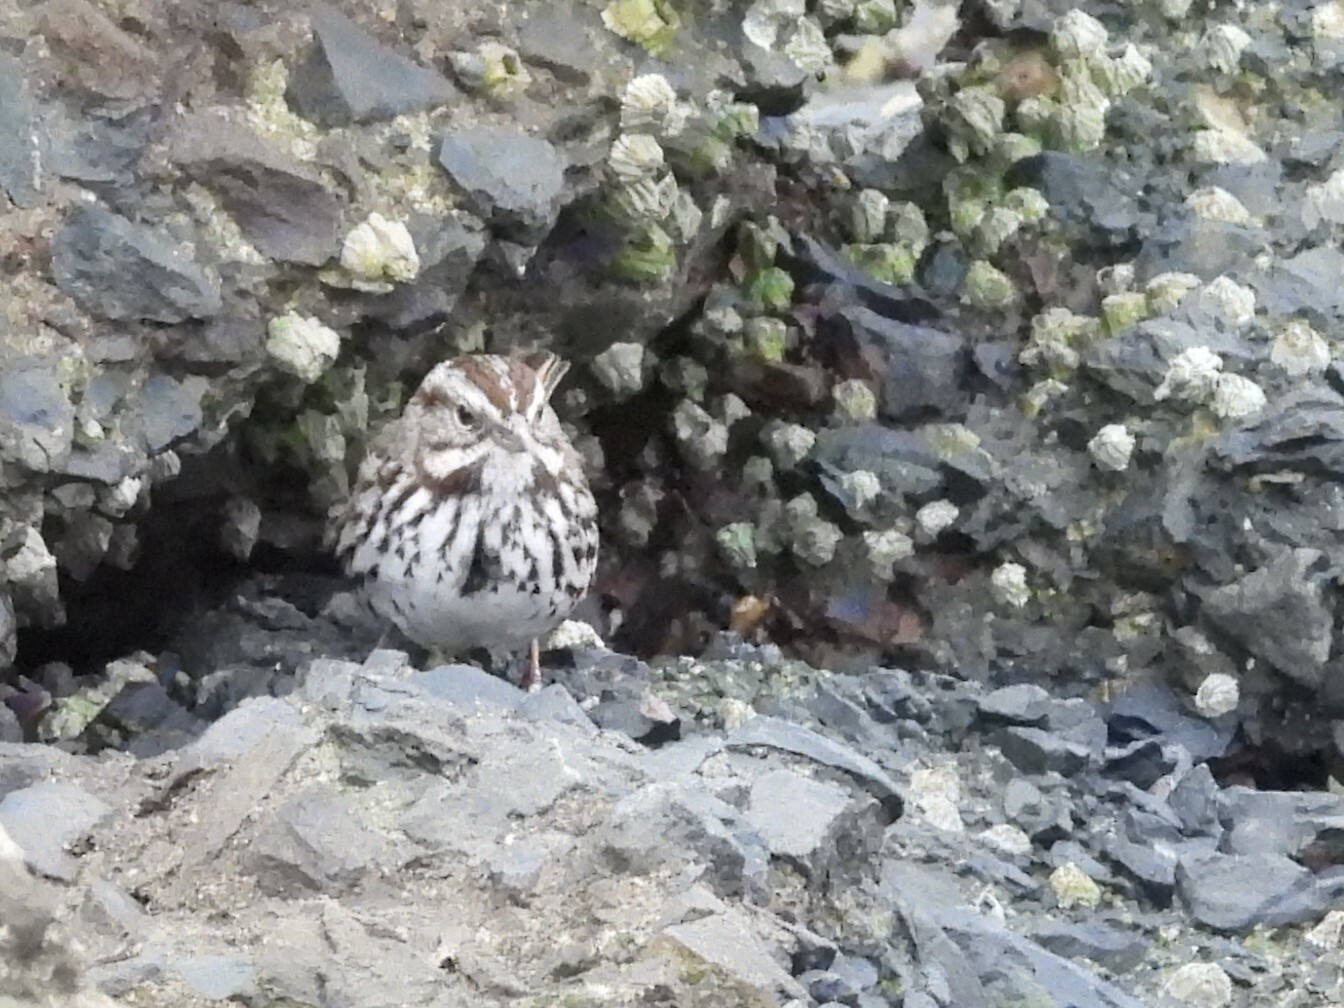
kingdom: Animalia
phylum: Chordata
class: Aves
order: Passeriformes
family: Passerellidae
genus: Melospiza
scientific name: Melospiza melodia
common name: Song sparrow
